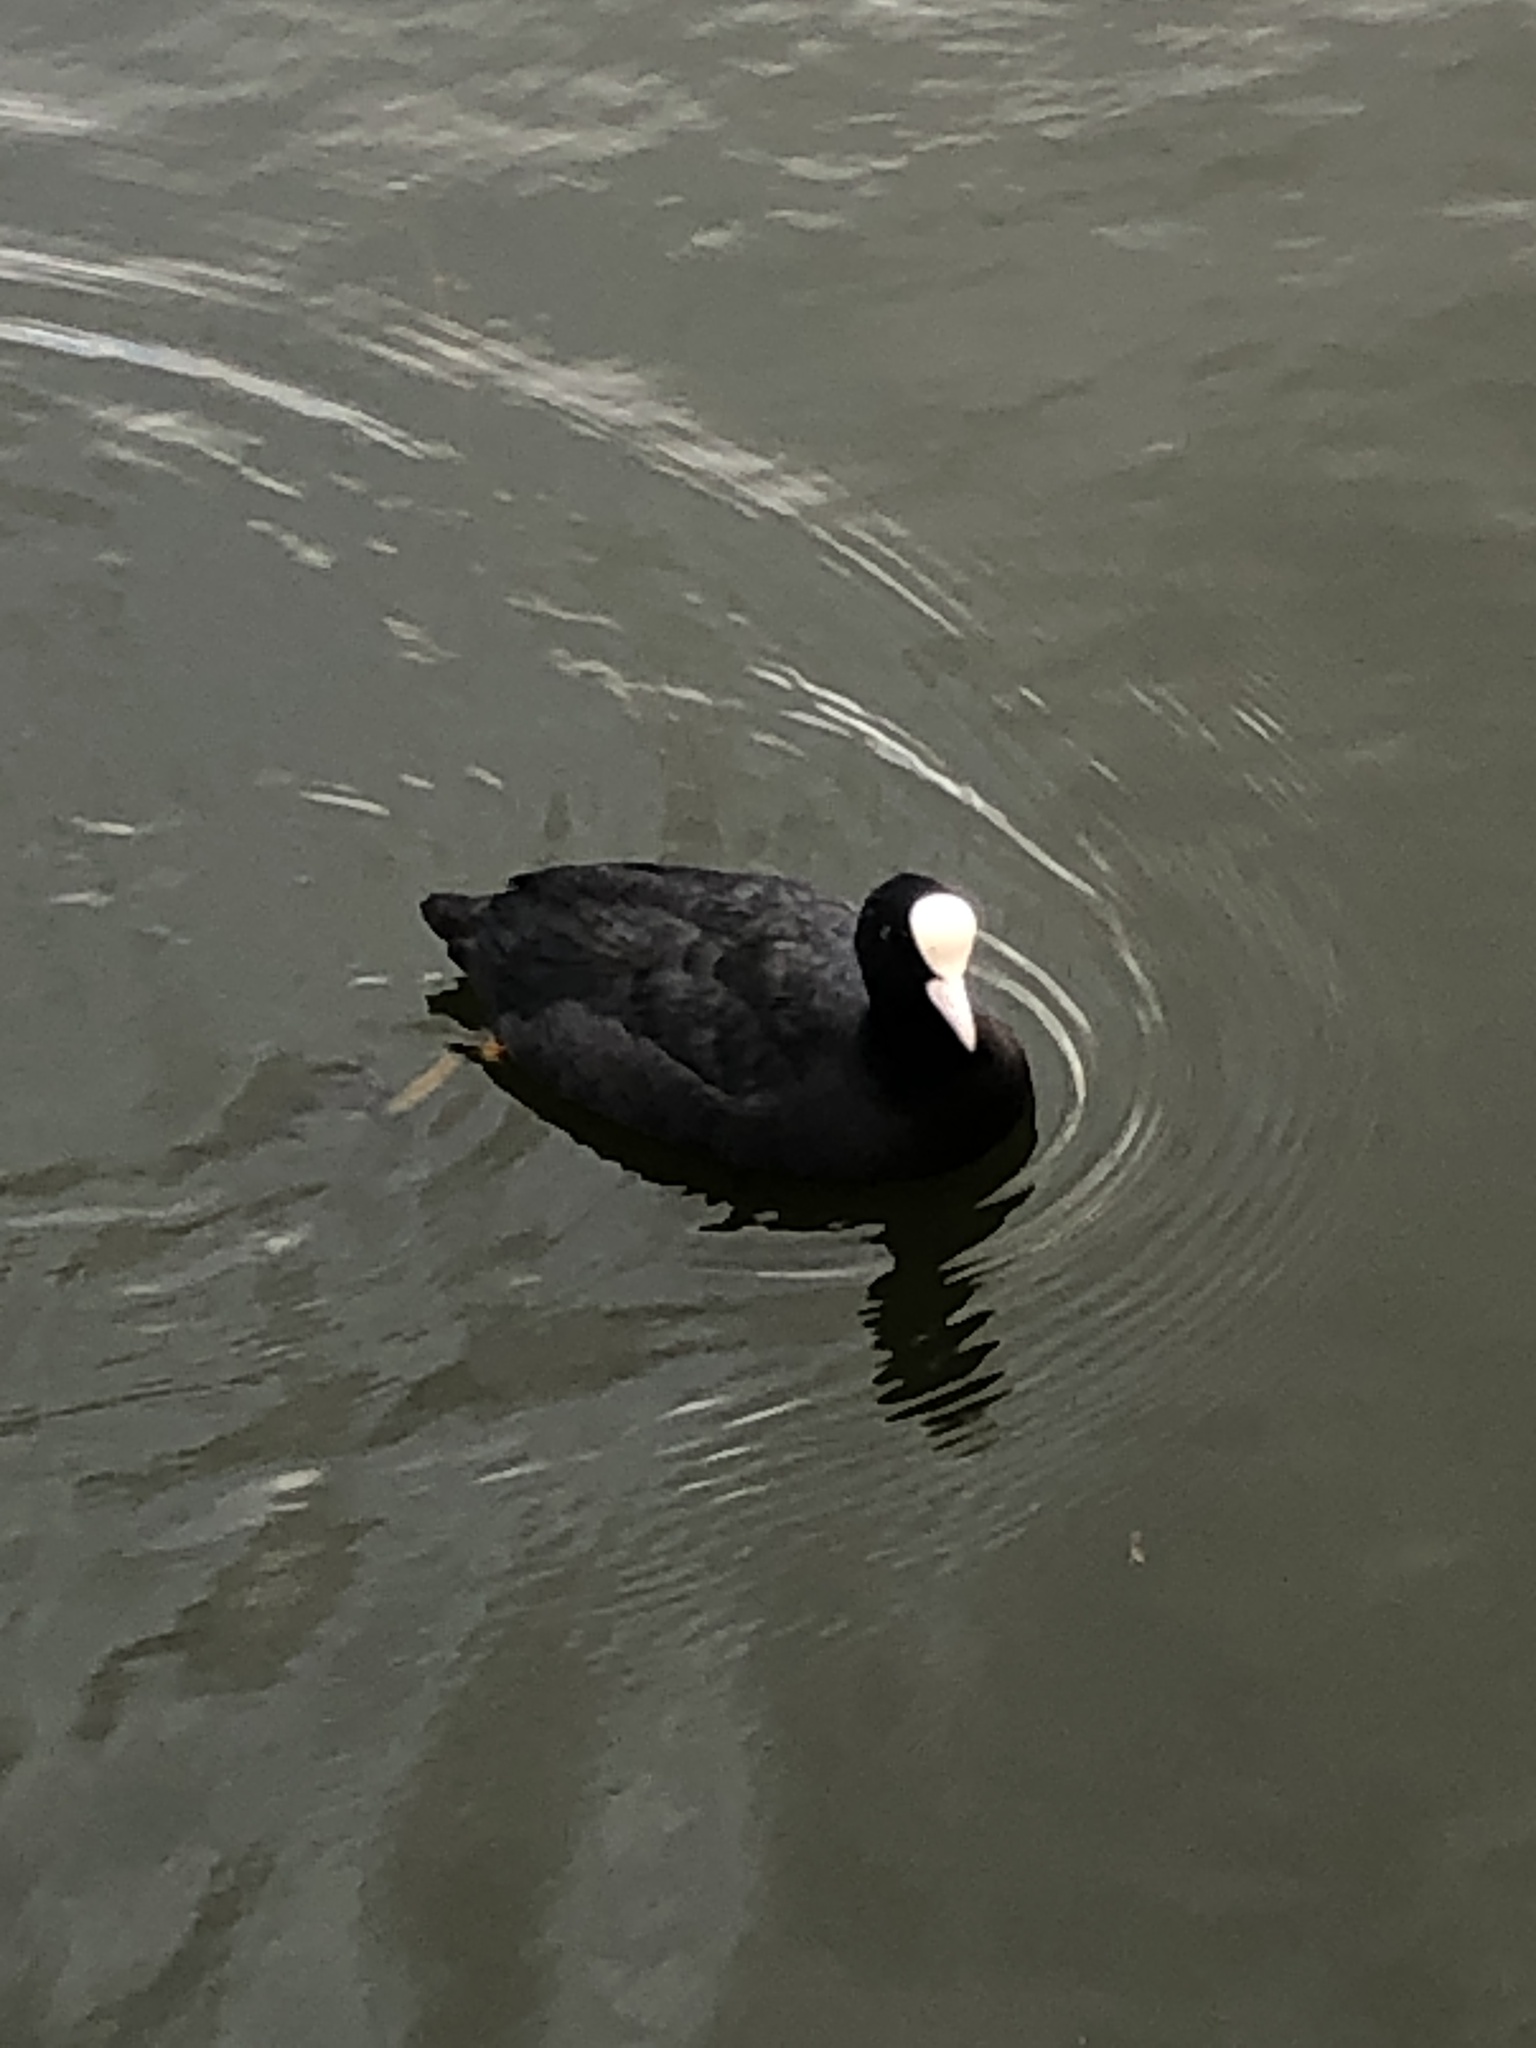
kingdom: Animalia
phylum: Chordata
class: Aves
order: Gruiformes
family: Rallidae
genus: Fulica
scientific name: Fulica atra
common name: Eurasian coot
